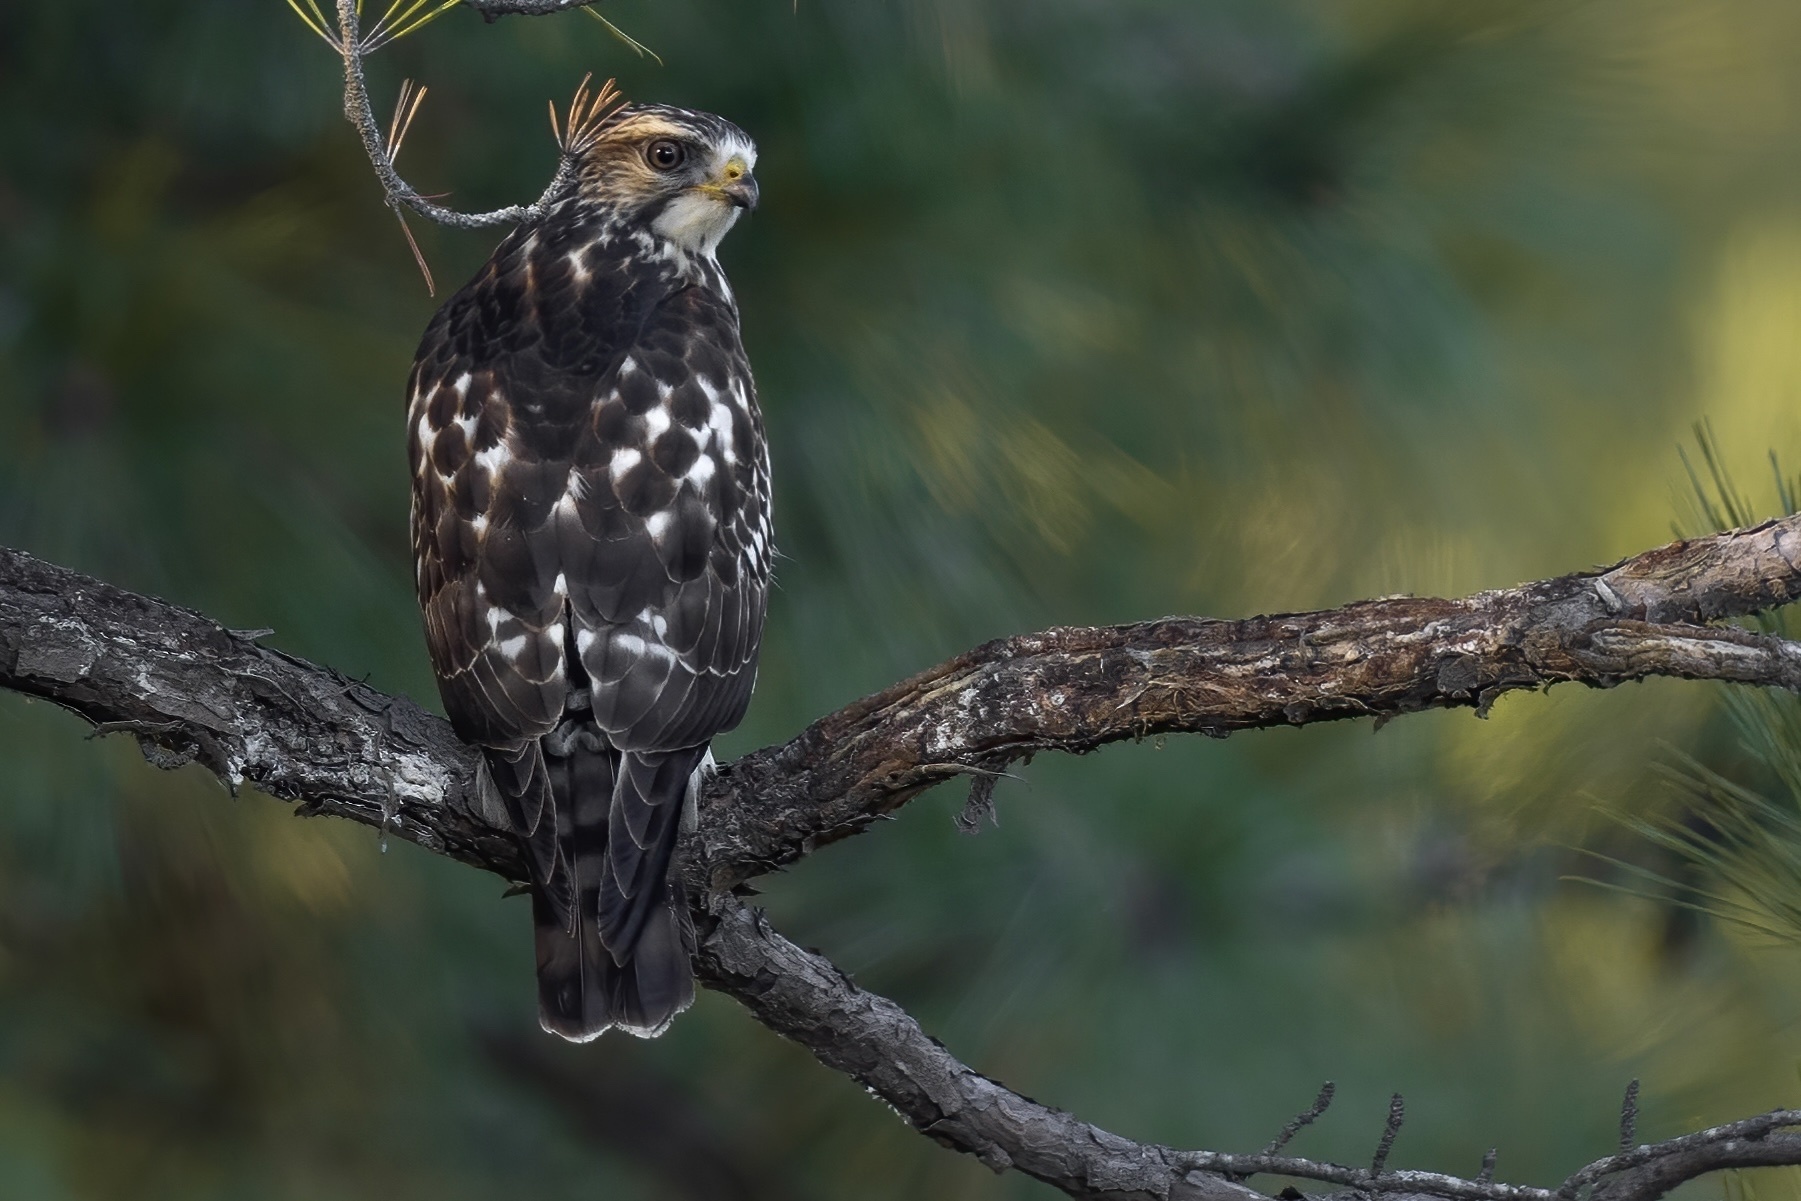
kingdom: Animalia
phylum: Chordata
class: Aves
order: Accipitriformes
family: Accipitridae
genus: Buteo
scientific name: Buteo platypterus
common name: Broad-winged hawk
